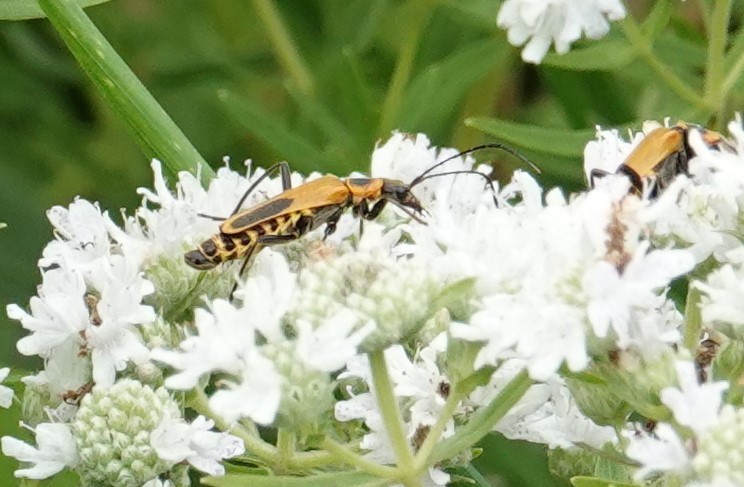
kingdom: Animalia
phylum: Arthropoda
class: Insecta
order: Coleoptera
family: Cantharidae
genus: Chauliognathus
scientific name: Chauliognathus pensylvanicus
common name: Goldenrod soldier beetle
